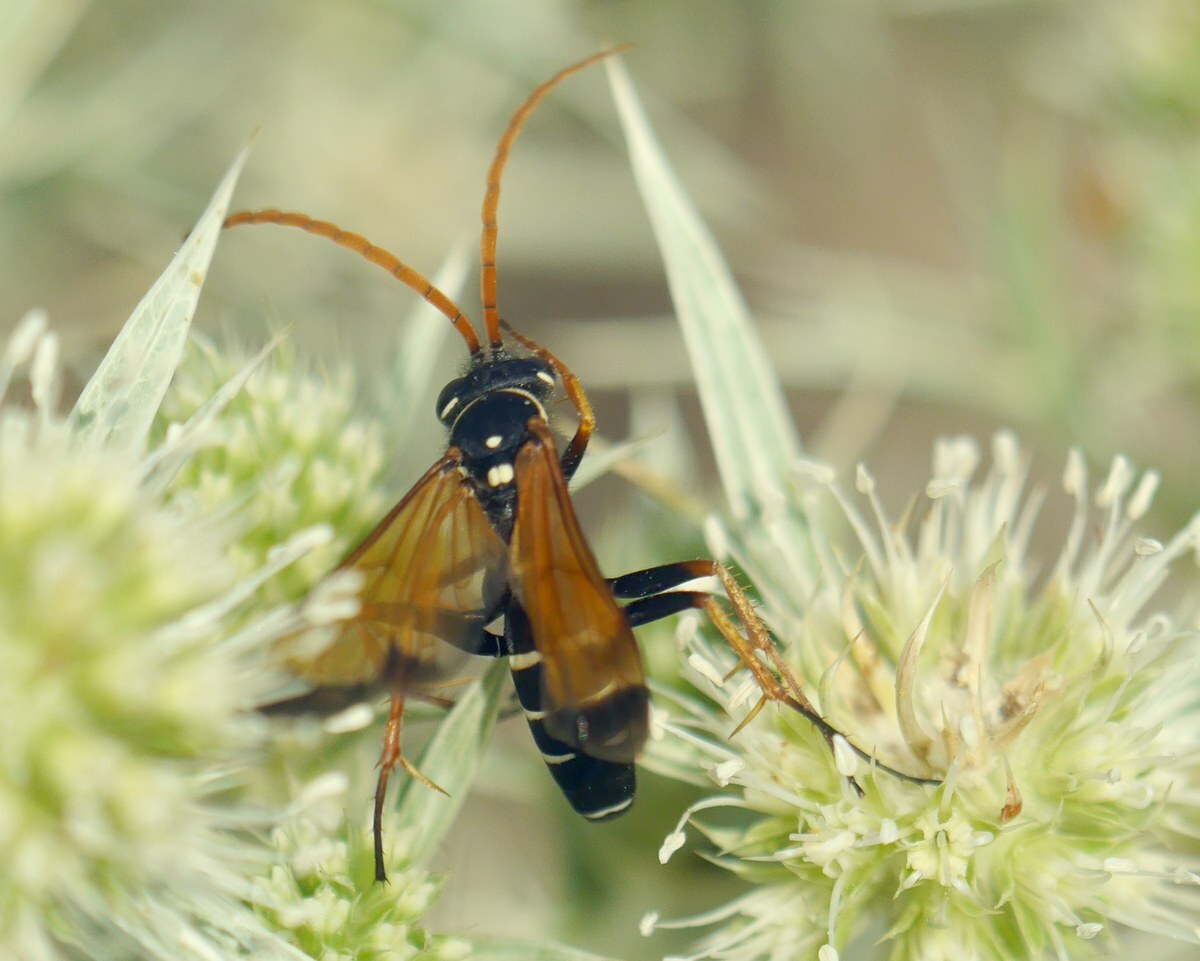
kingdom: Animalia
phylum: Arthropoda
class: Insecta
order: Hymenoptera
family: Pompilidae
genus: Parabatozonus
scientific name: Parabatozonus lacerticida
